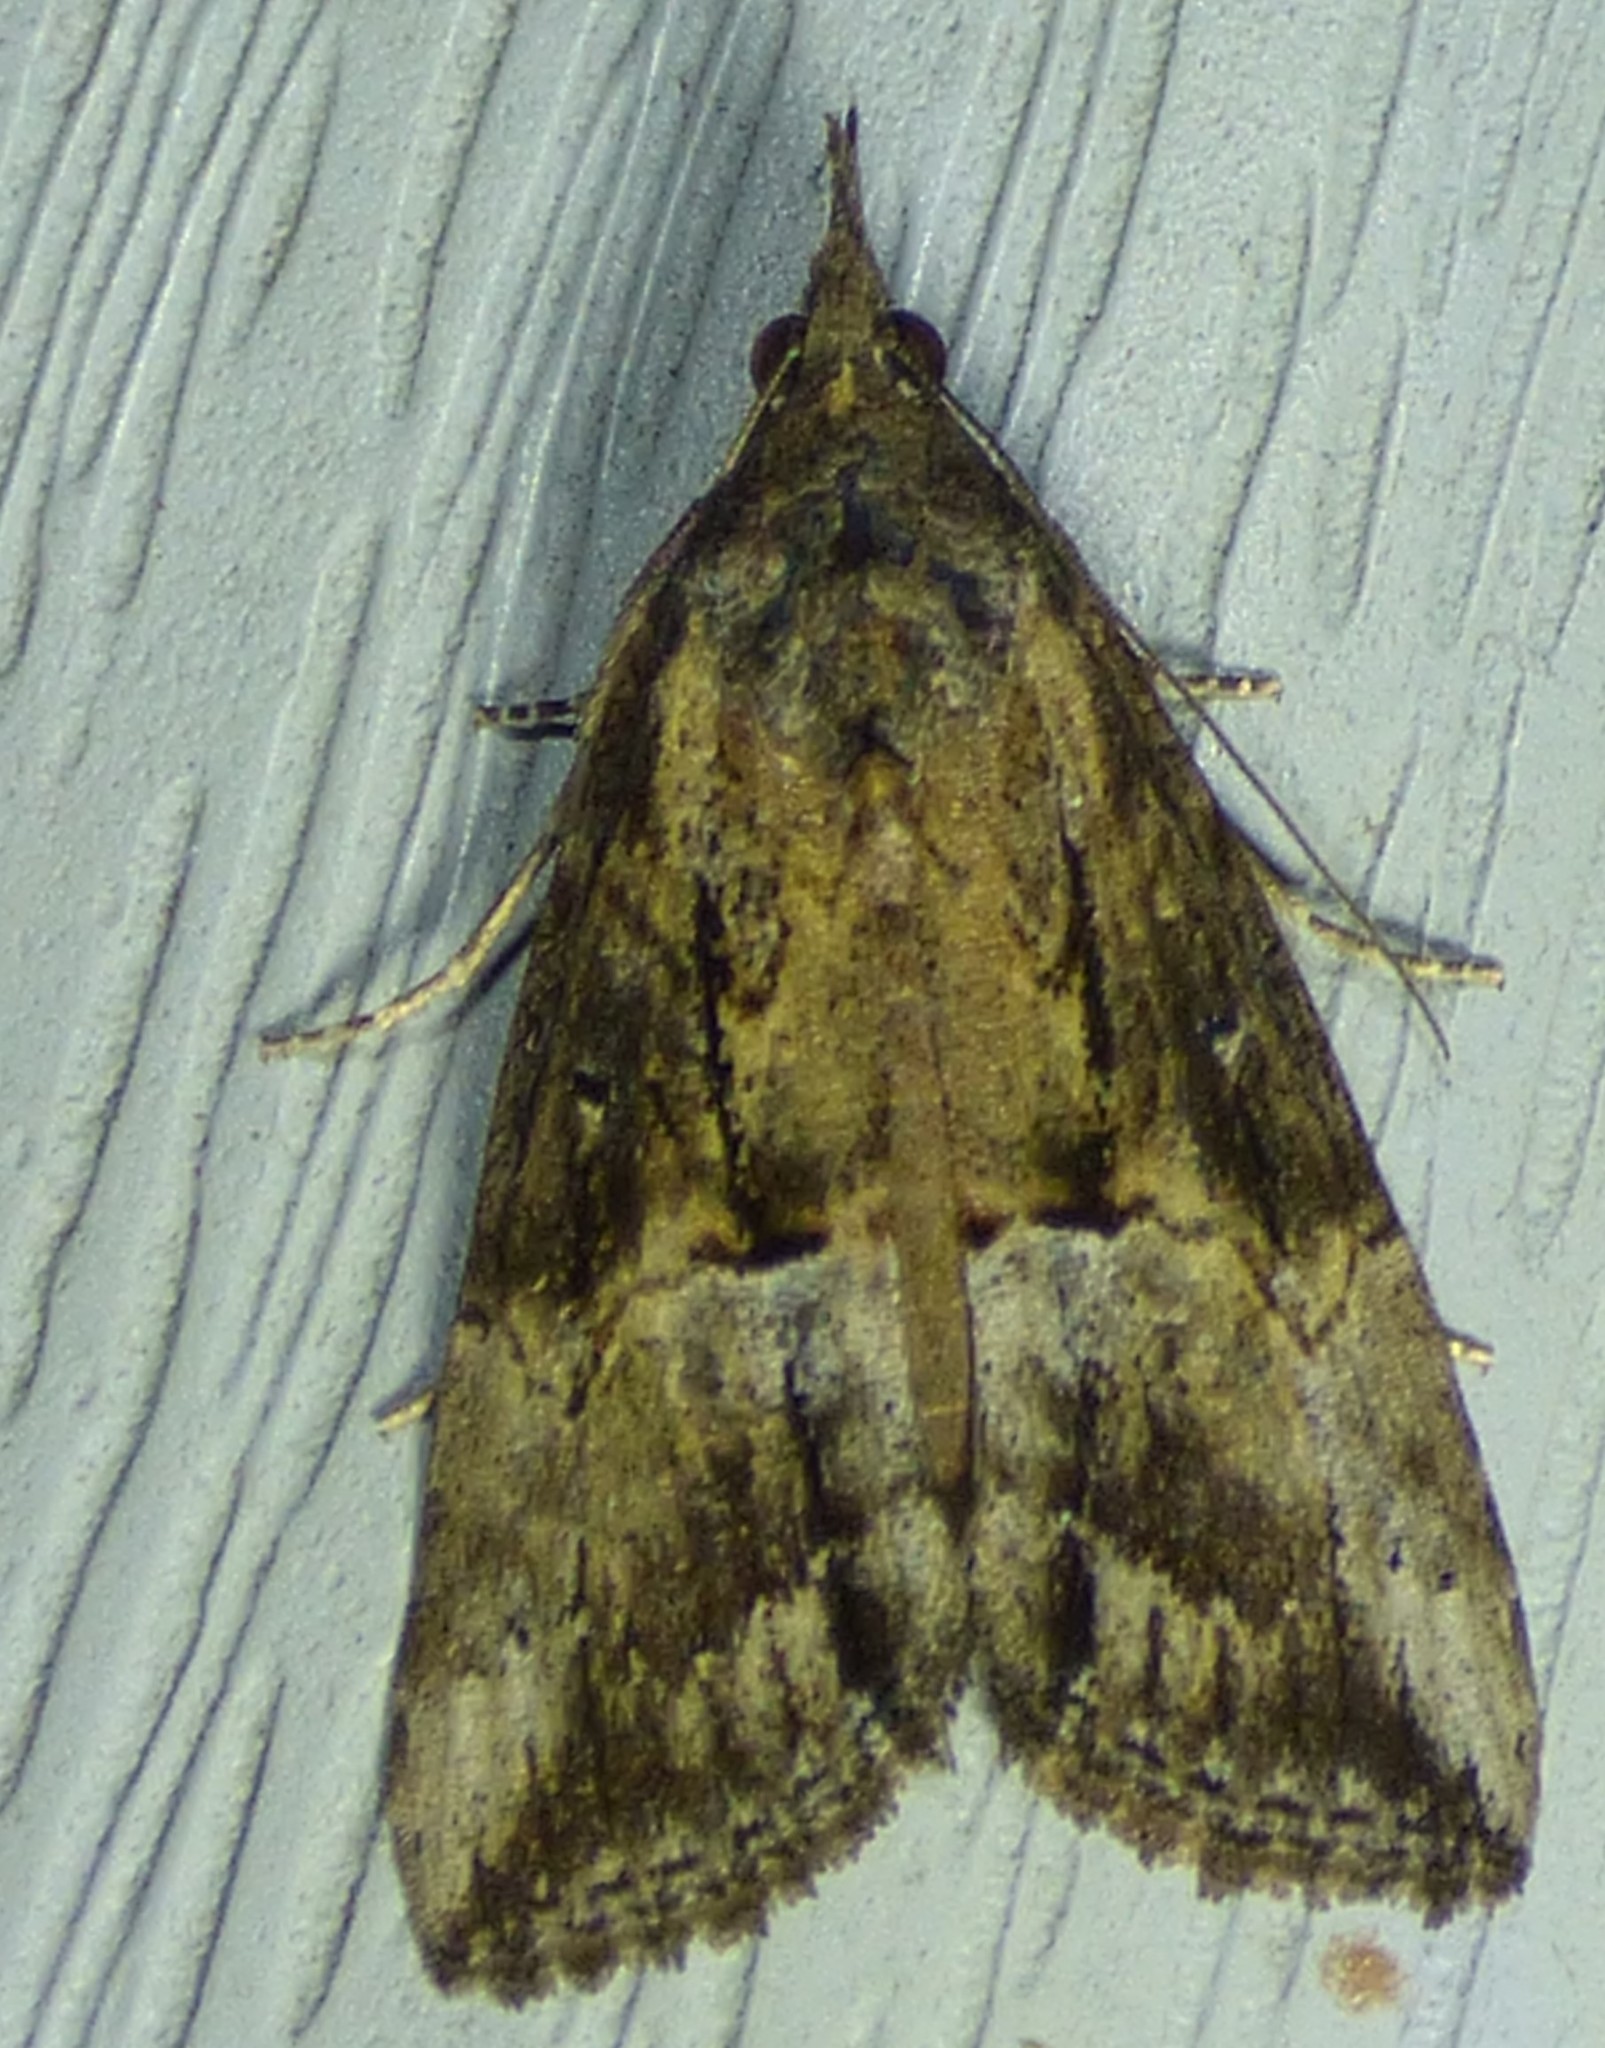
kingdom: Animalia
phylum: Arthropoda
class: Insecta
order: Lepidoptera
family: Erebidae
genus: Hypena
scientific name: Hypena scabra
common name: Green cloverworm
